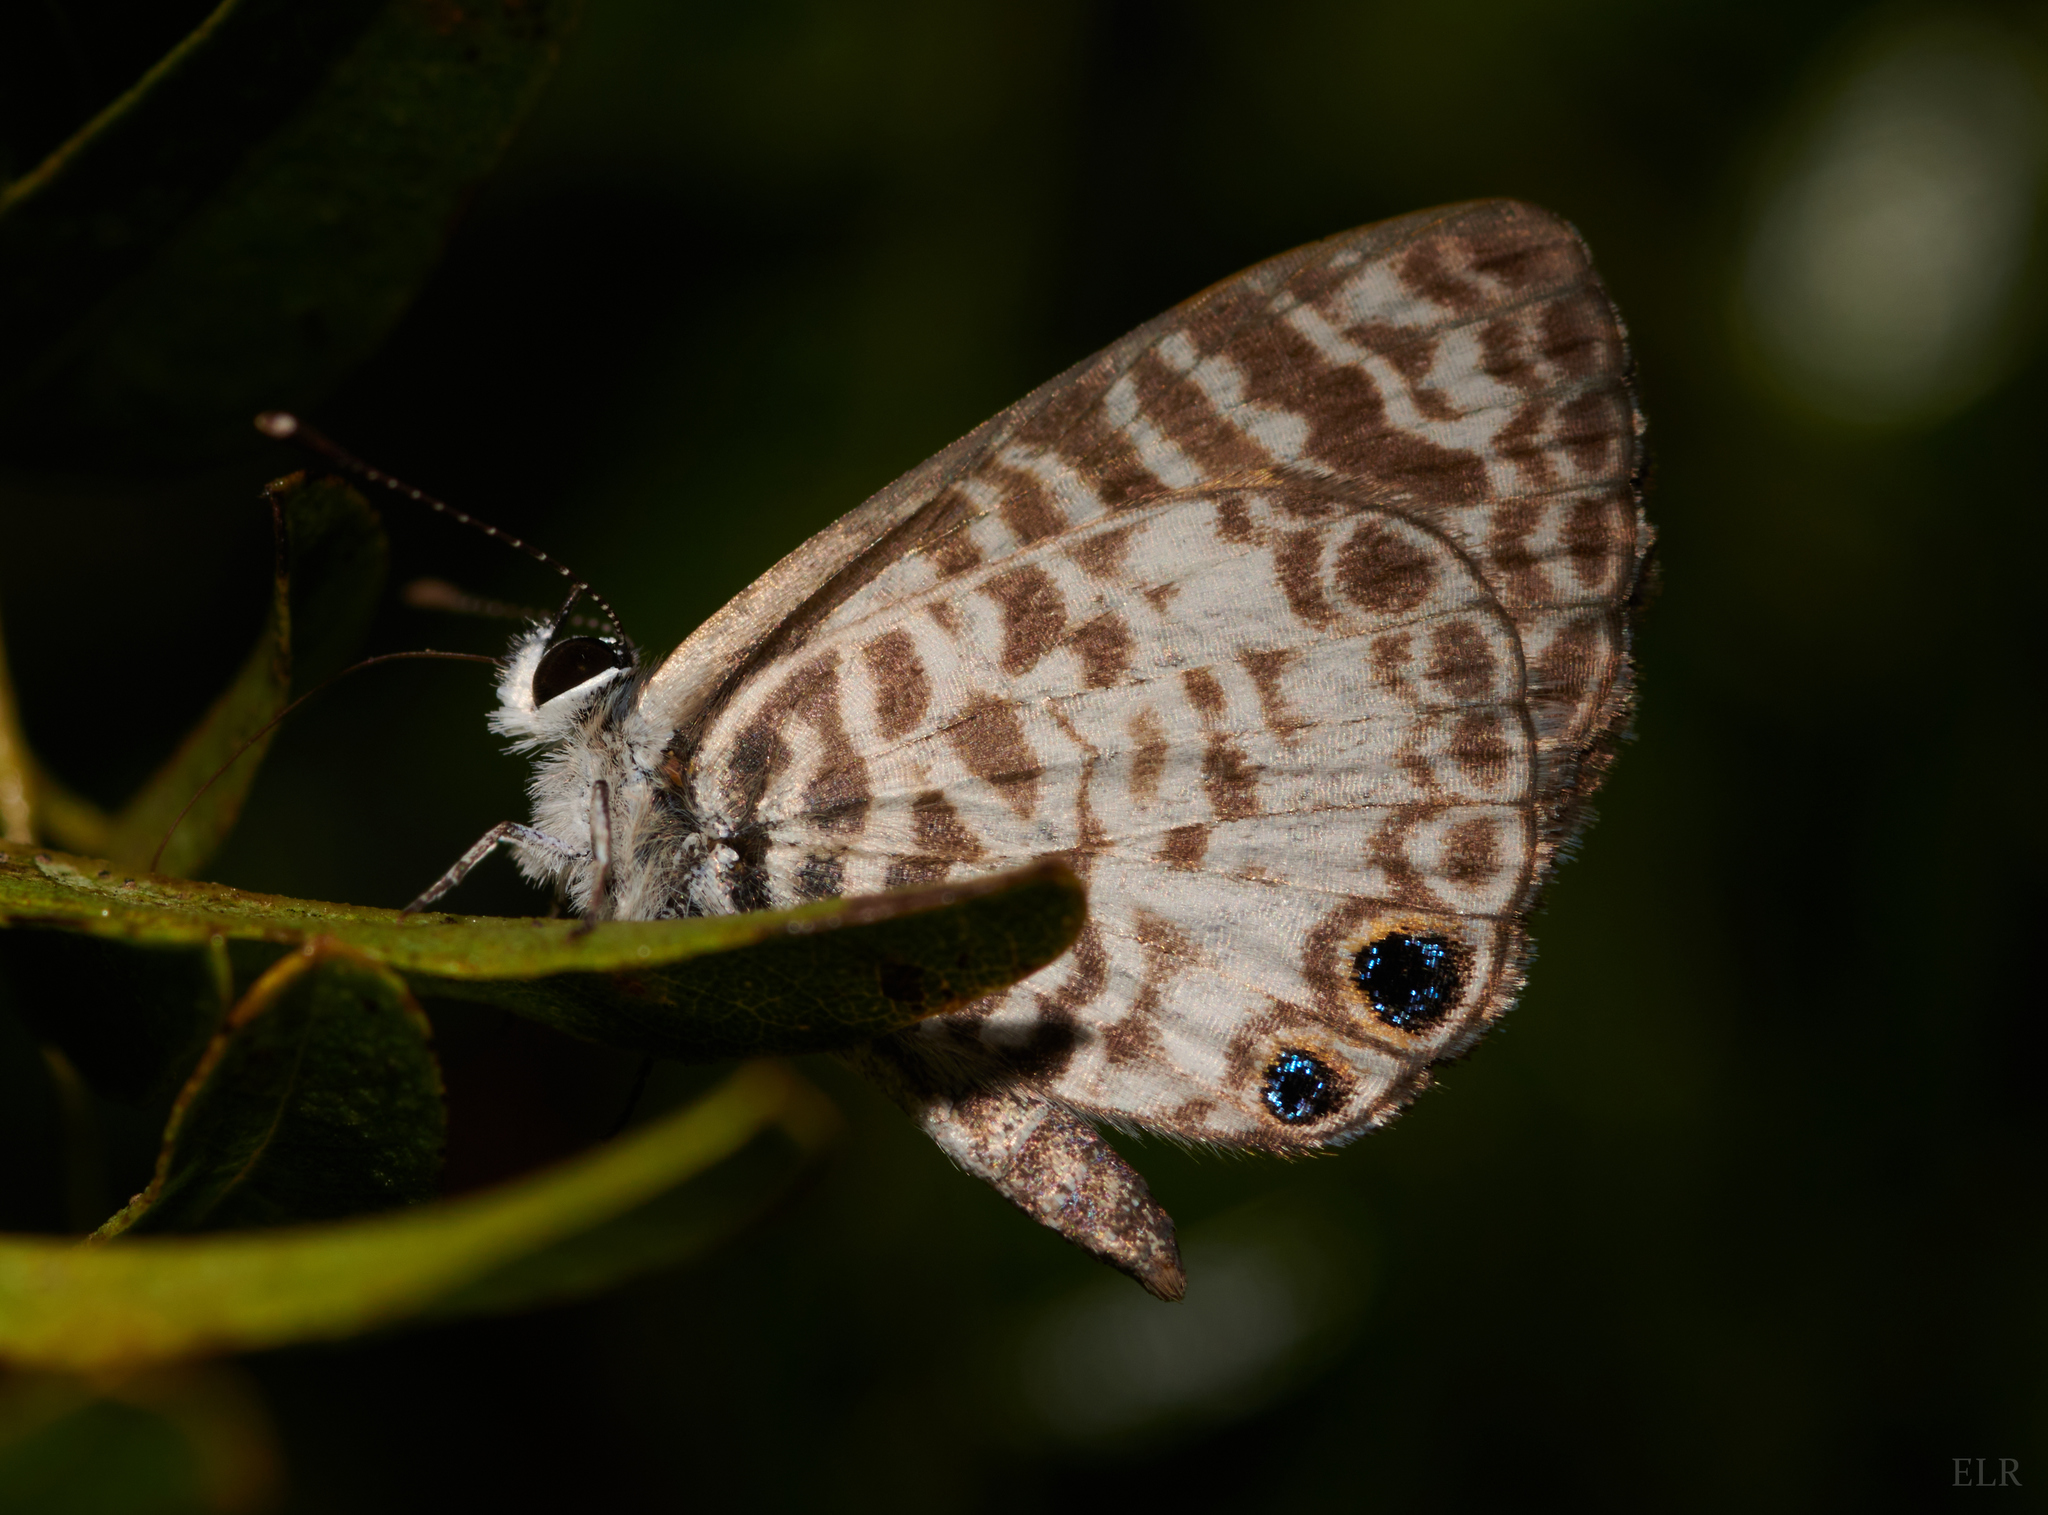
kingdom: Animalia
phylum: Arthropoda
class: Insecta
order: Lepidoptera
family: Lycaenidae
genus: Leptotes
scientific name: Leptotes cassius
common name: Cassius blue
